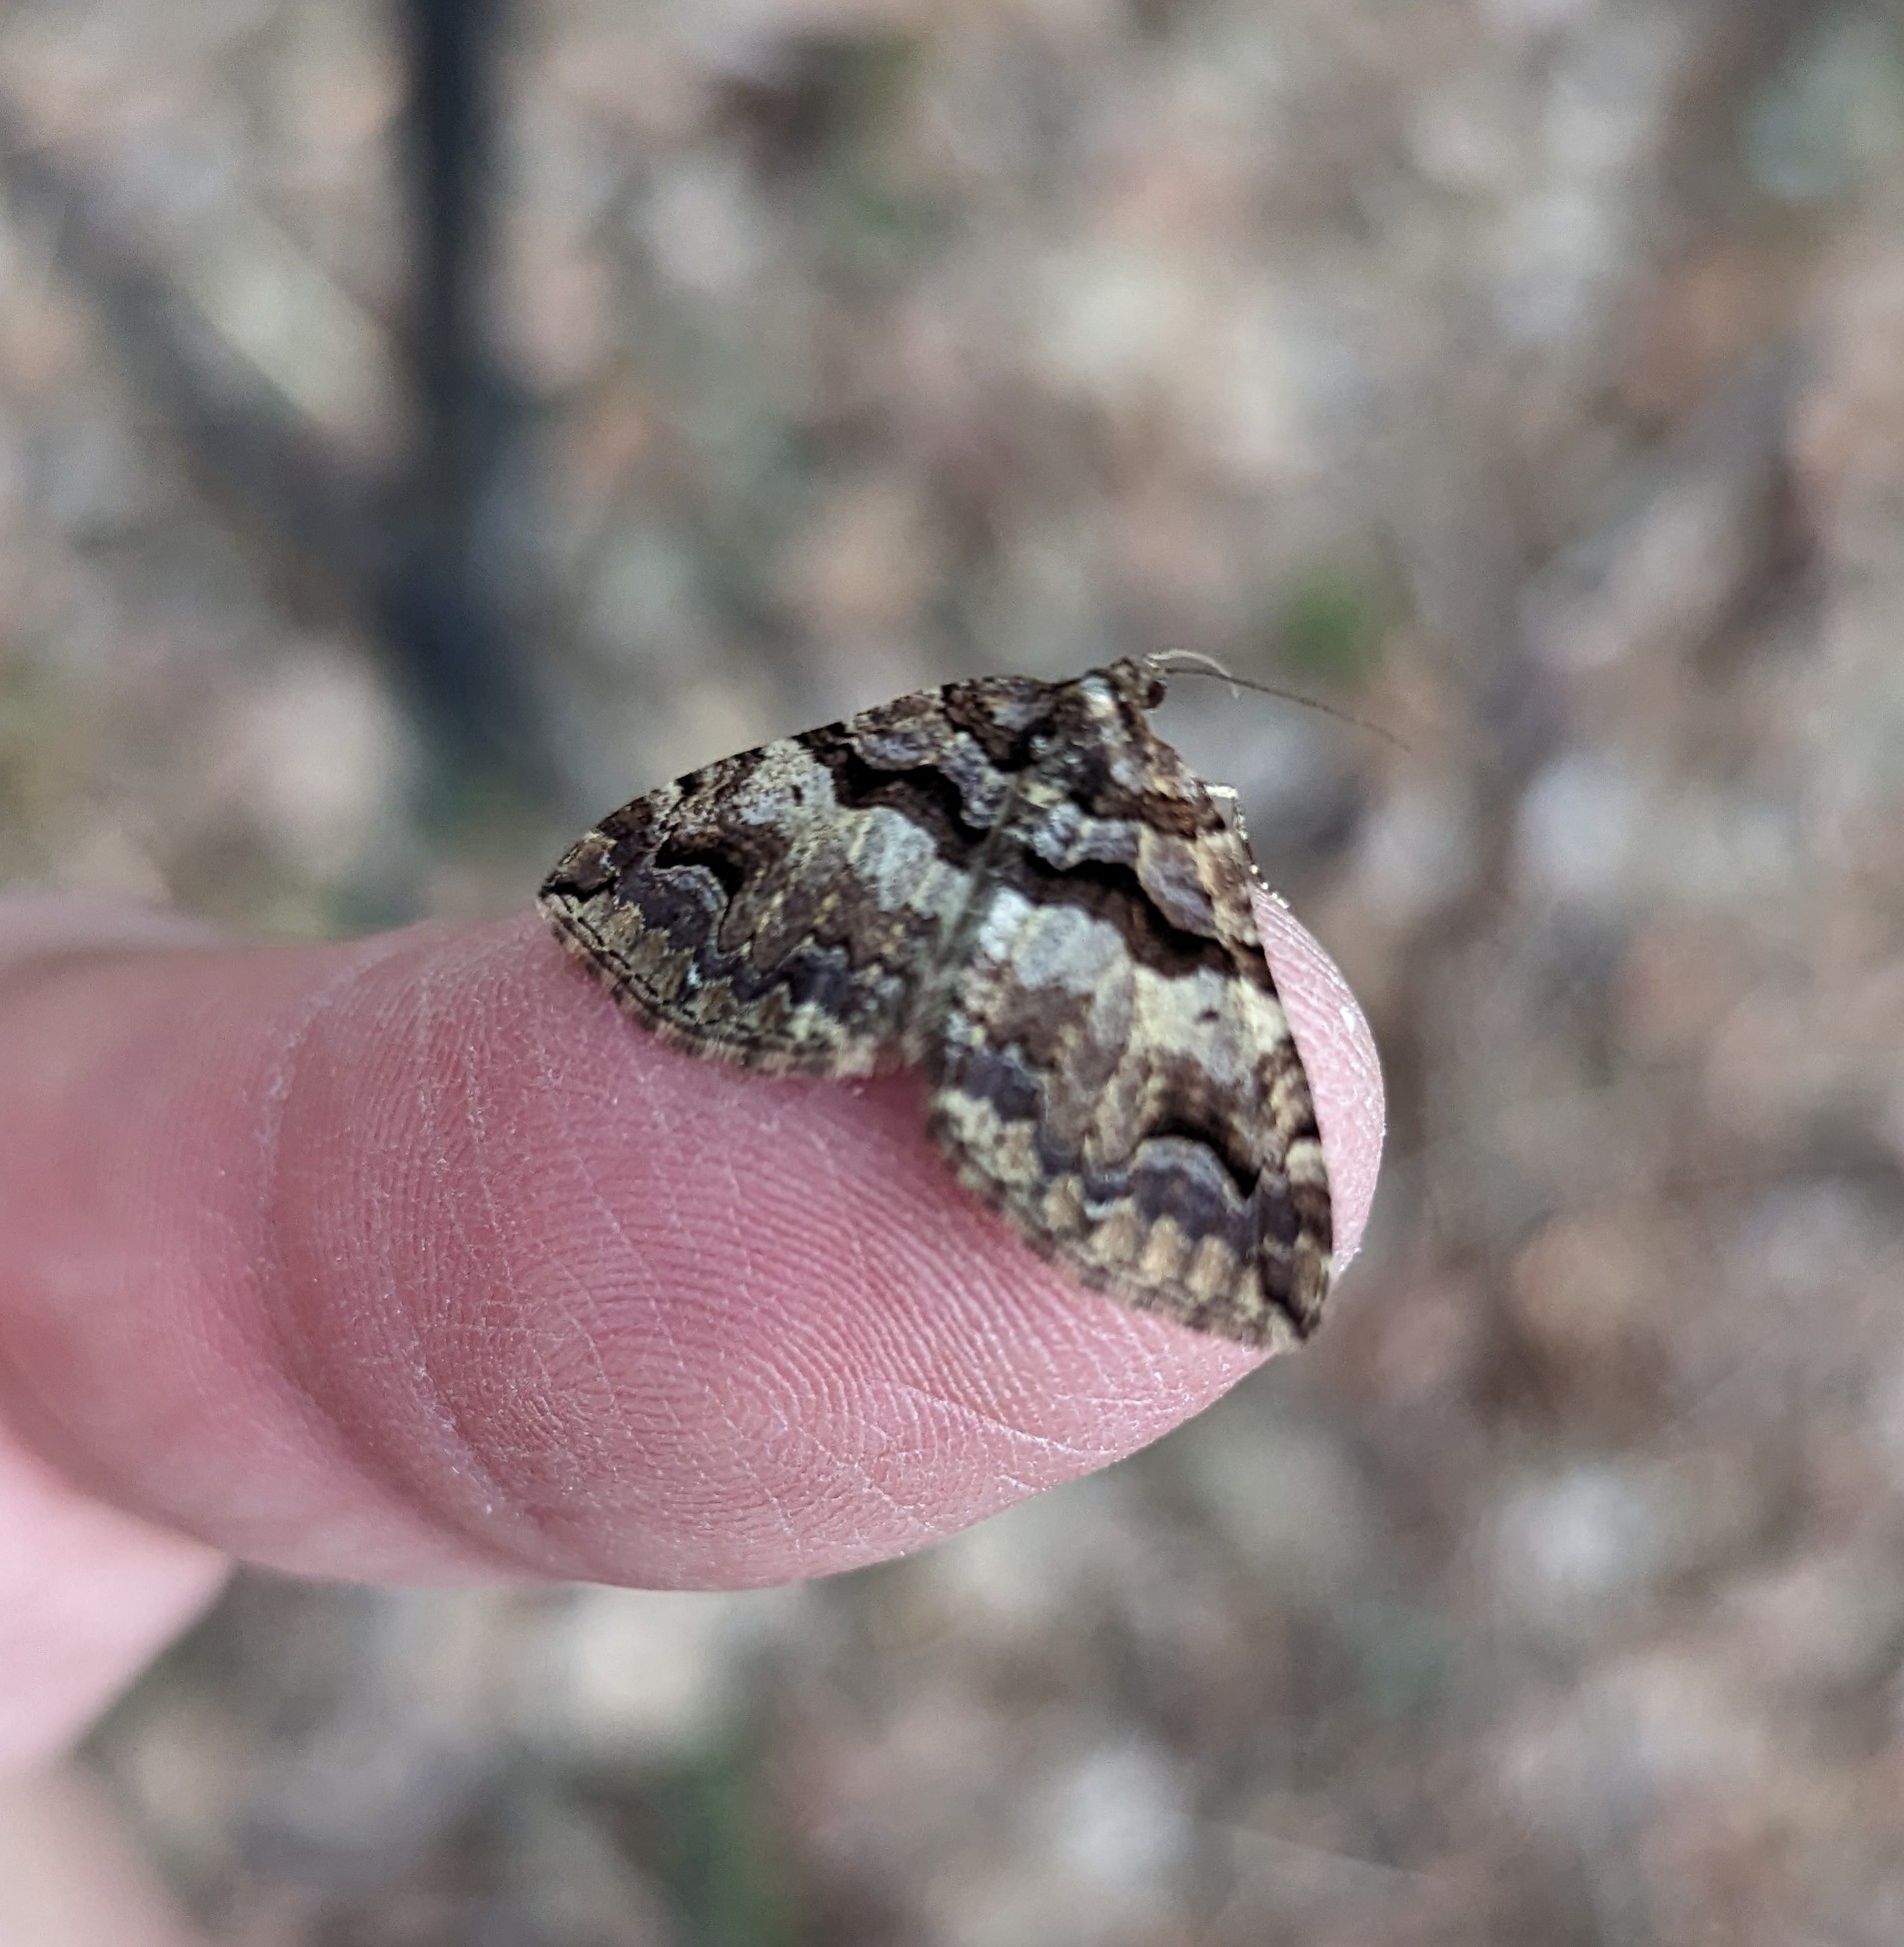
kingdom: Animalia
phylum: Arthropoda
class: Insecta
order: Lepidoptera
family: Geometridae
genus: Anticlea
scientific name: Anticlea vasiliata
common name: Variable carpet
